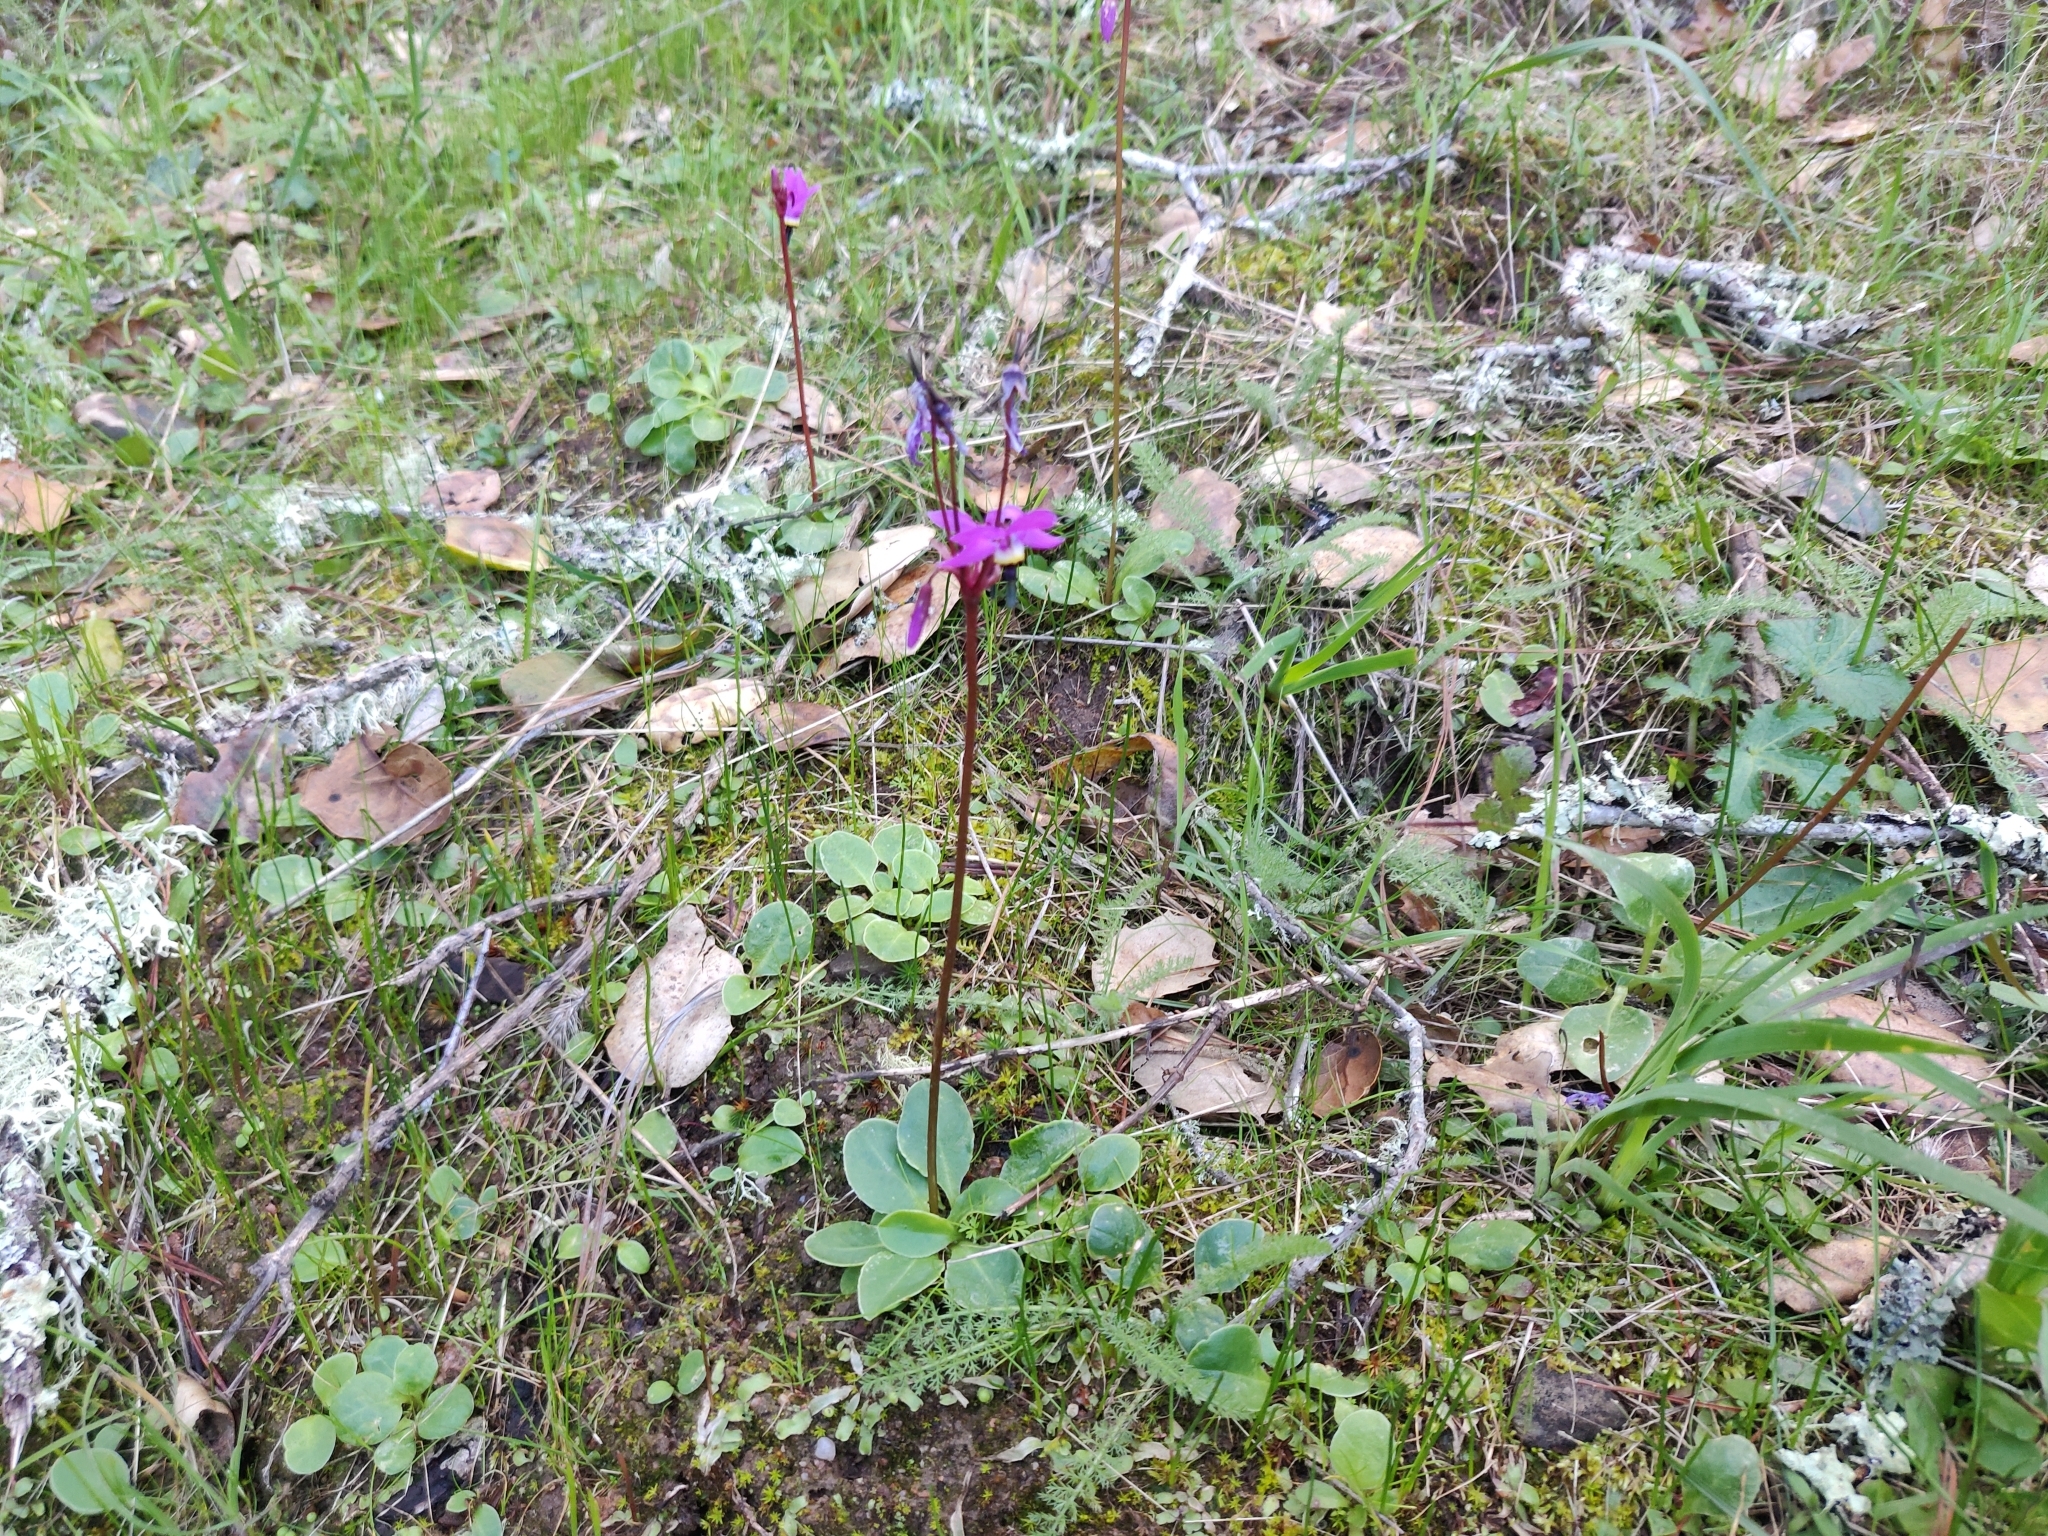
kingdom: Plantae
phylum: Tracheophyta
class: Magnoliopsida
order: Ericales
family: Primulaceae
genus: Dodecatheon
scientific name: Dodecatheon hendersonii
